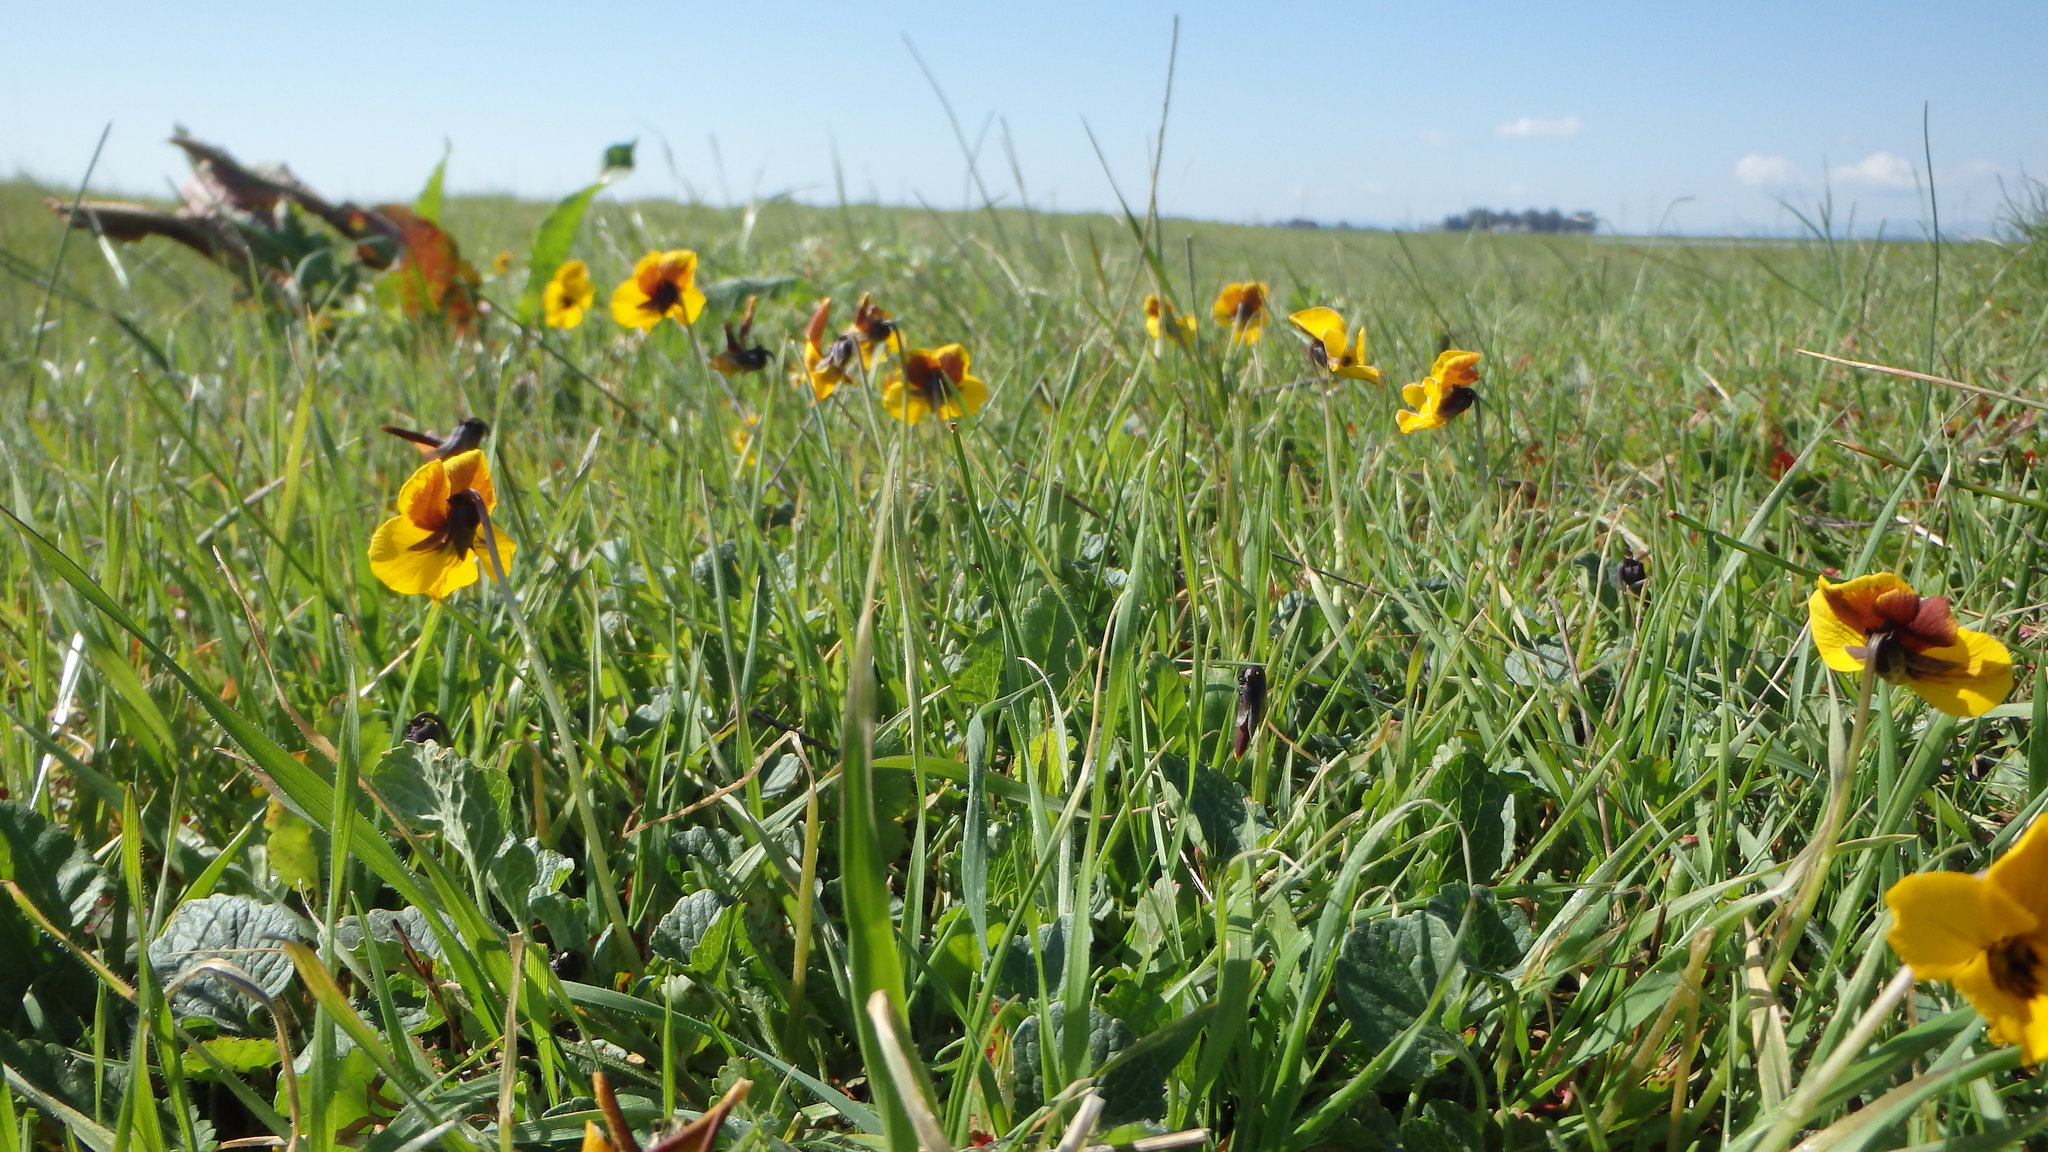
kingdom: Plantae
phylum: Tracheophyta
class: Magnoliopsida
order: Malpighiales
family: Violaceae
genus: Viola
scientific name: Viola pedunculata
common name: California golden violet
